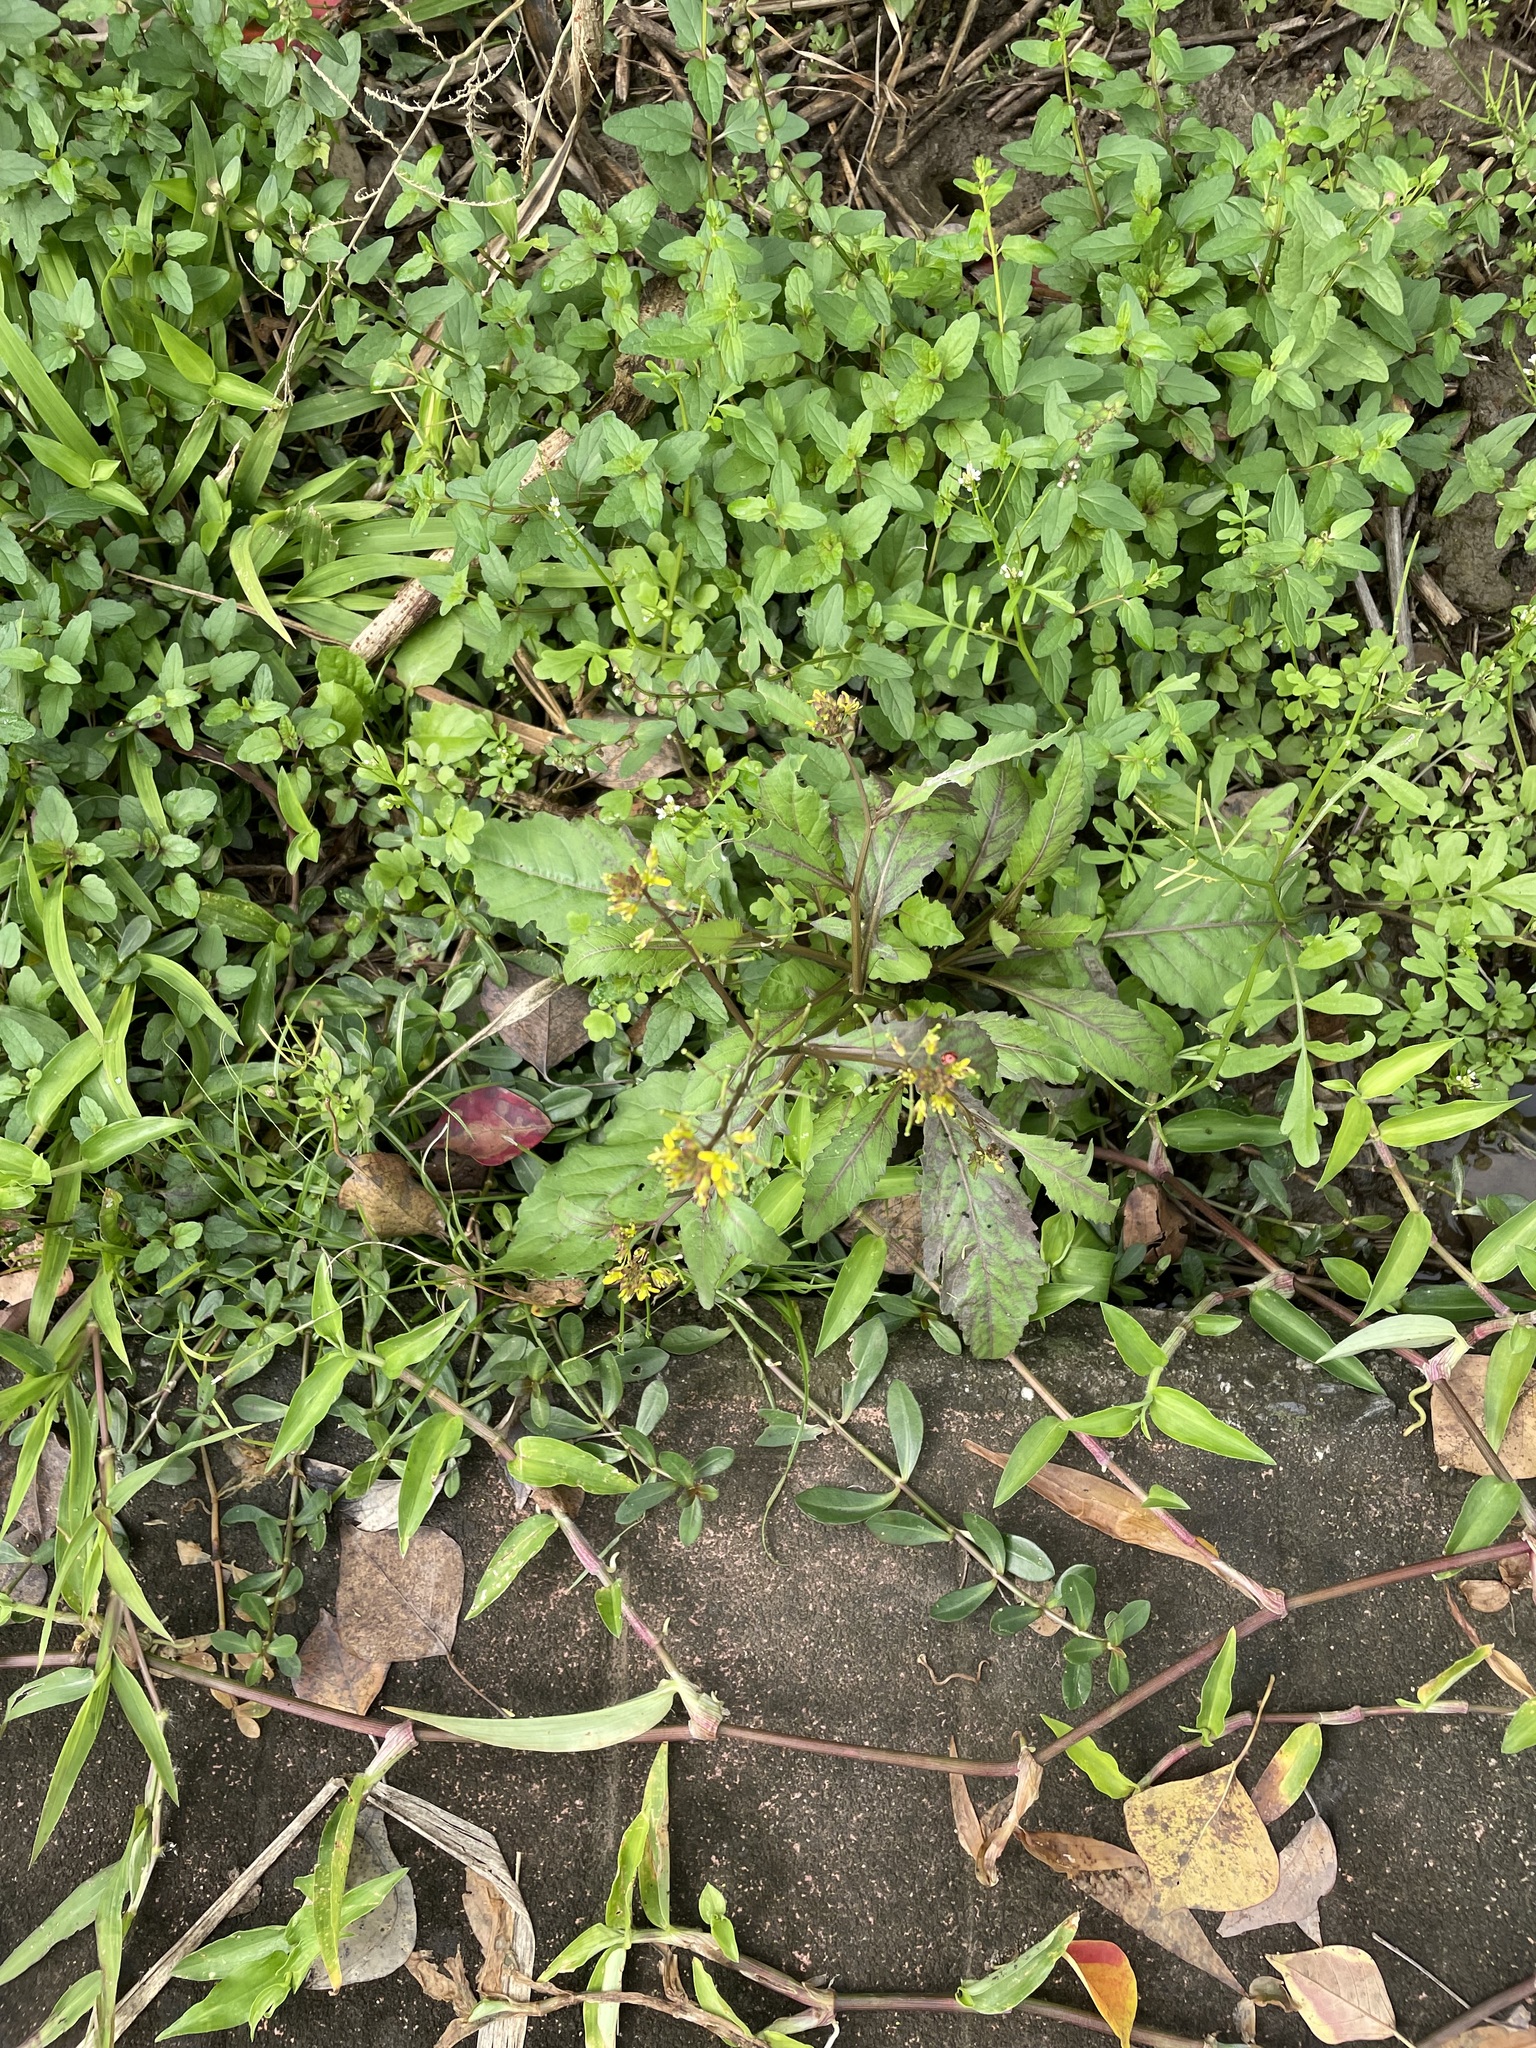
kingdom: Plantae
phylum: Tracheophyta
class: Magnoliopsida
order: Brassicales
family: Brassicaceae
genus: Rorippa
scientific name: Rorippa indica
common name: Variableleaf yellowcress
